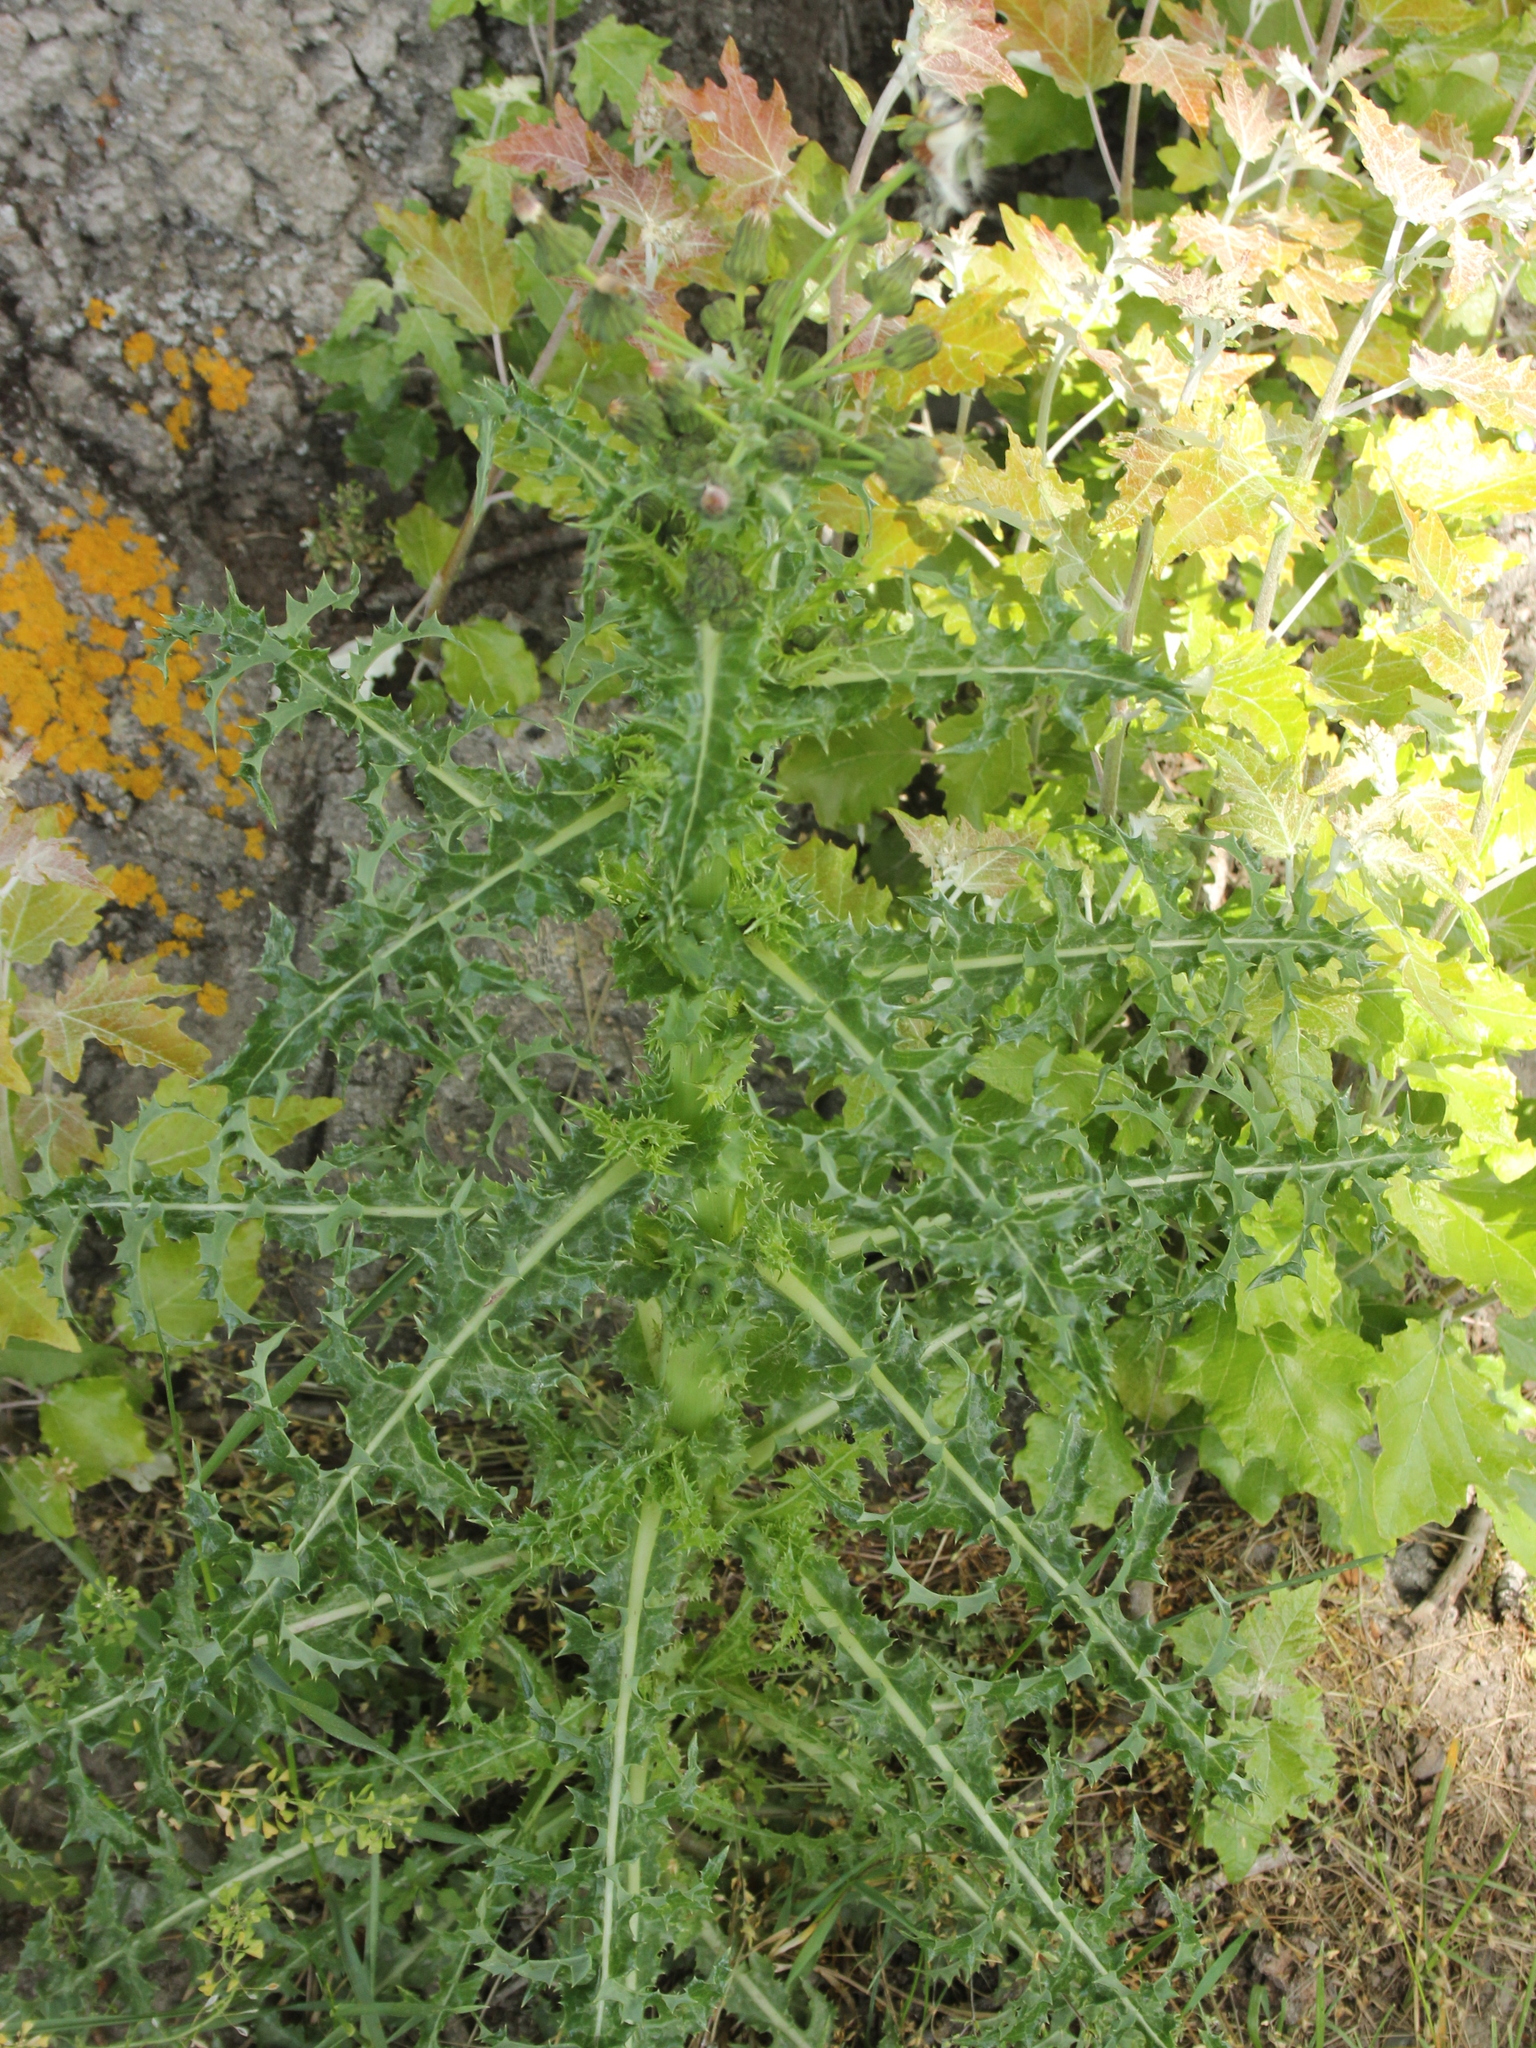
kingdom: Plantae
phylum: Tracheophyta
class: Magnoliopsida
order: Asterales
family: Asteraceae
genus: Sonchus
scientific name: Sonchus asper
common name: Prickly sow-thistle
